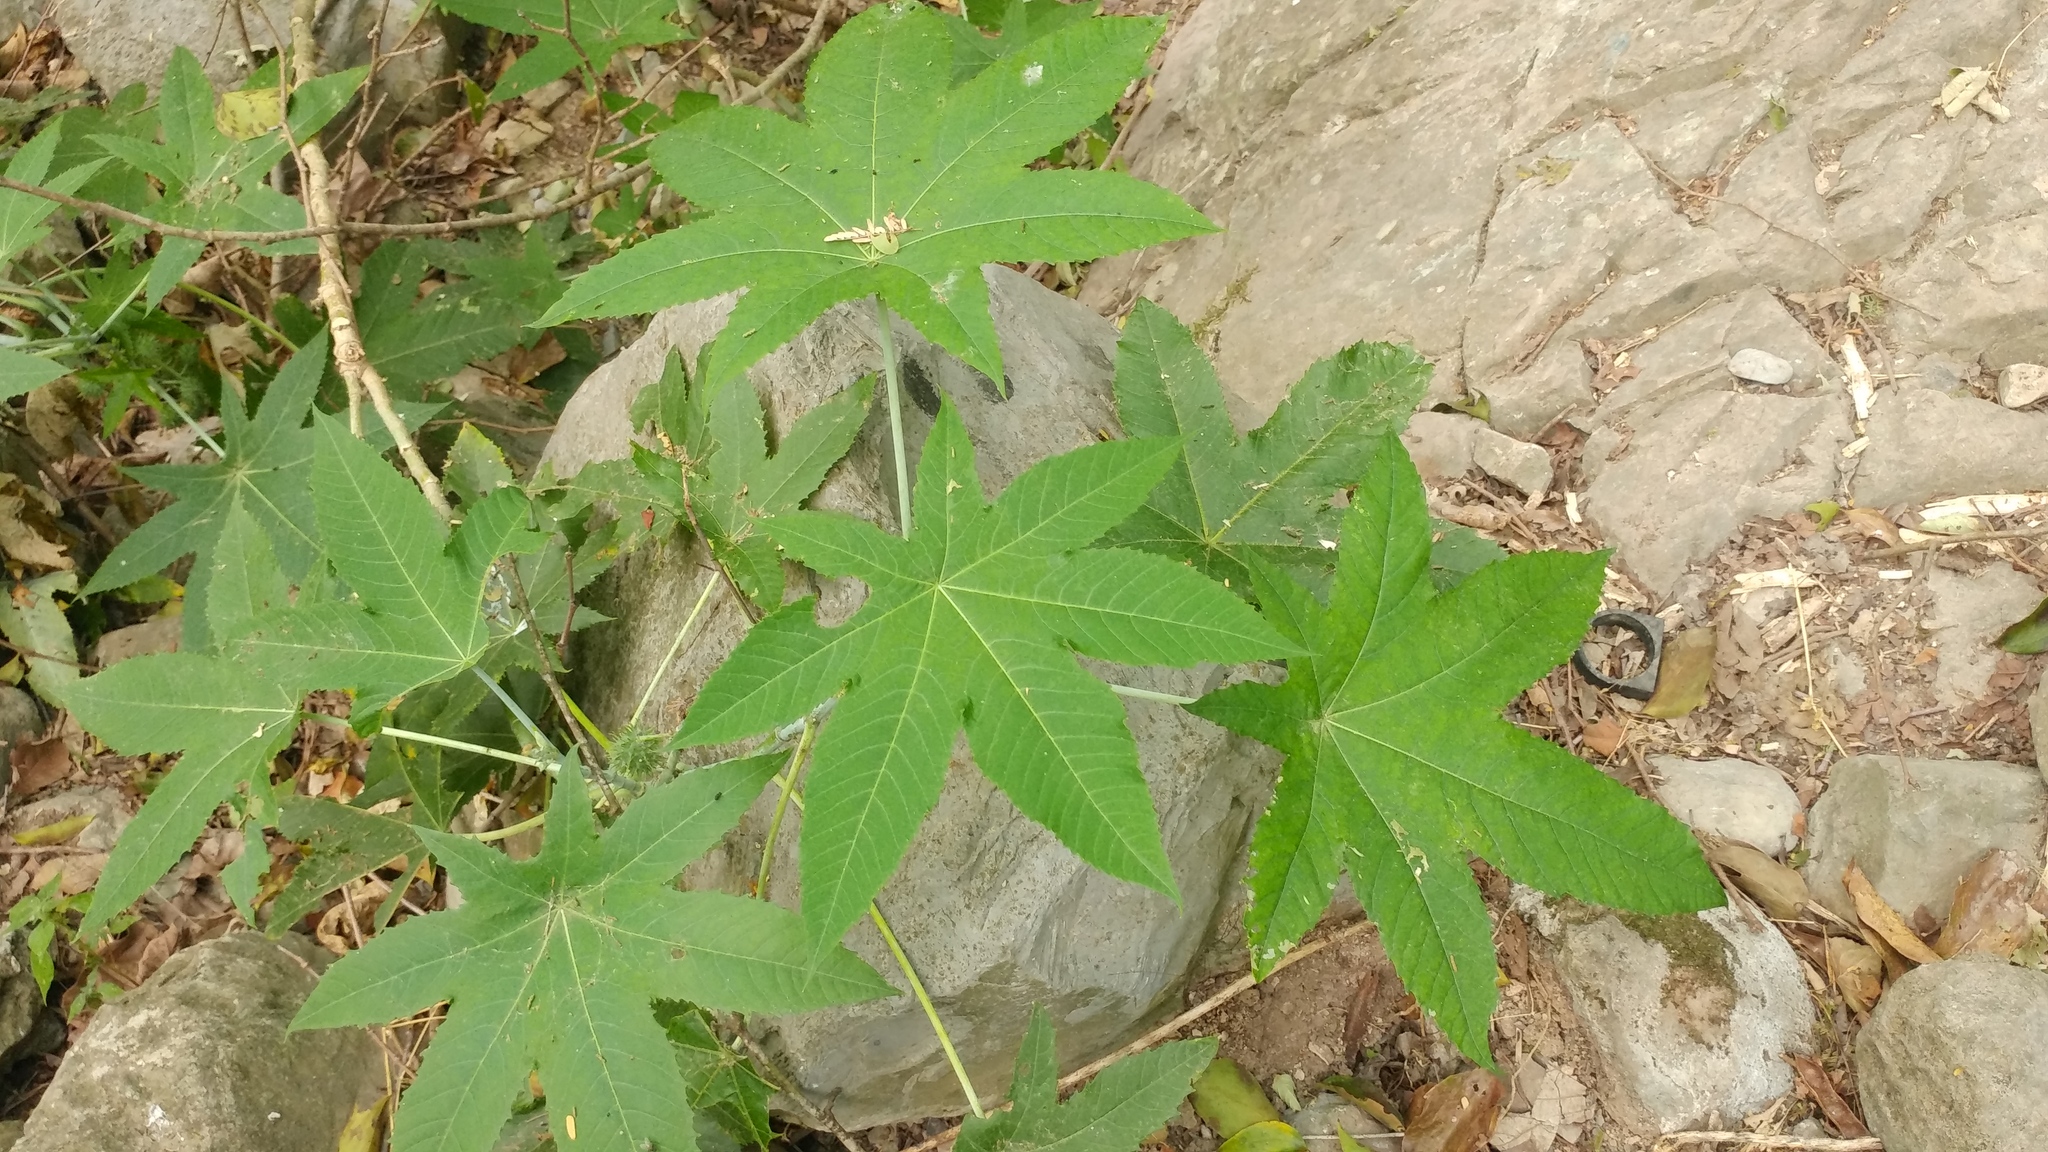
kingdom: Plantae
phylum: Tracheophyta
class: Magnoliopsida
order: Malpighiales
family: Euphorbiaceae
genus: Ricinus
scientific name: Ricinus communis
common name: Castor-oil-plant
